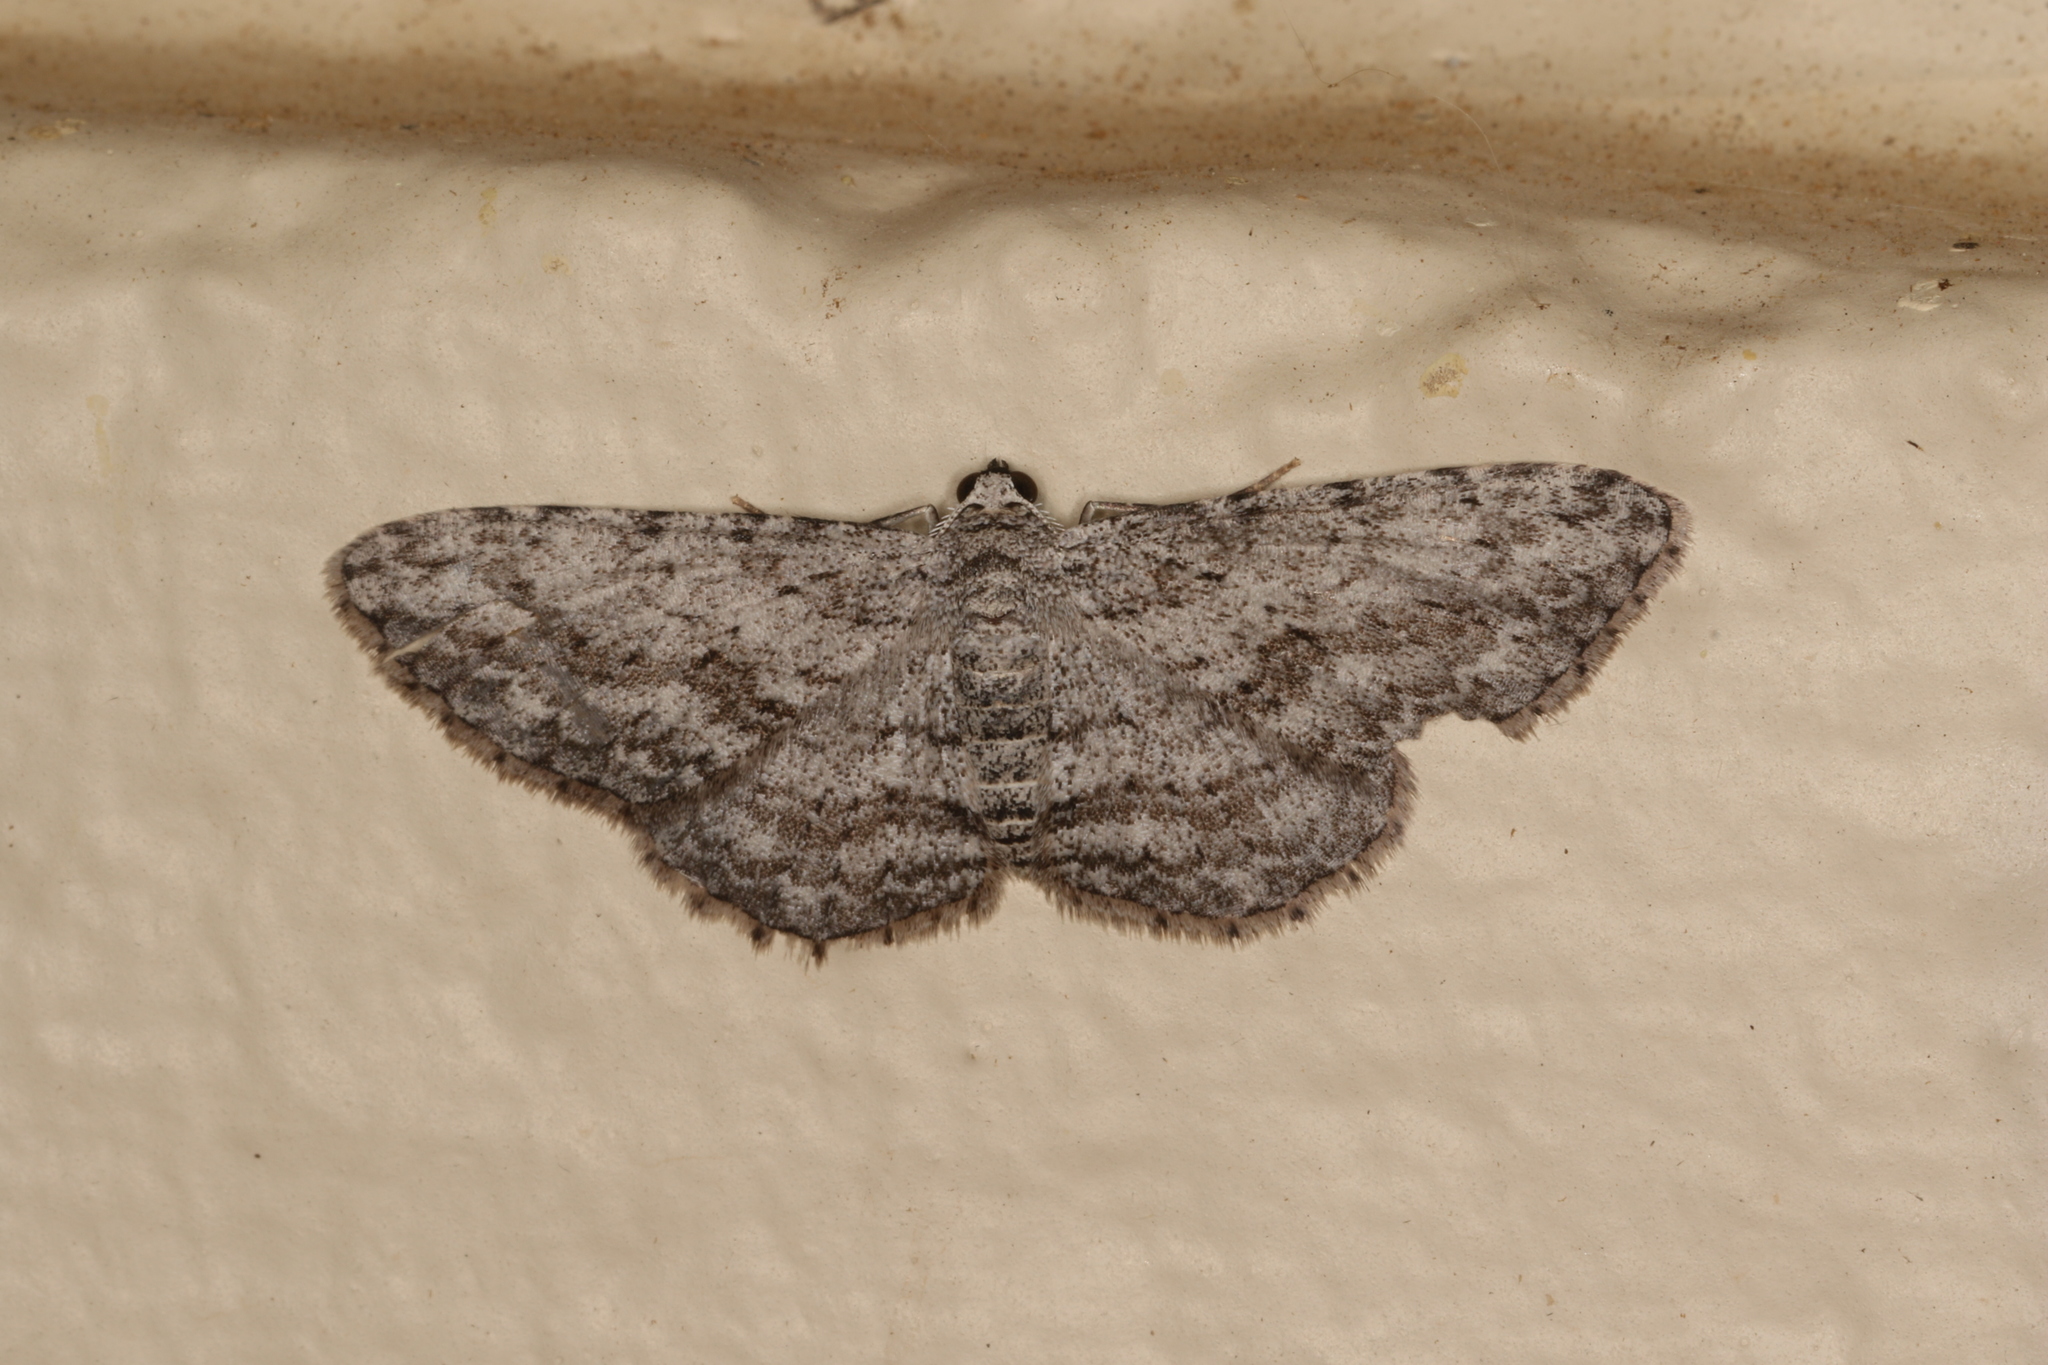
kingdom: Animalia
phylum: Arthropoda
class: Insecta
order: Lepidoptera
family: Geometridae
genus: Phelotis
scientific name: Phelotis cognata
